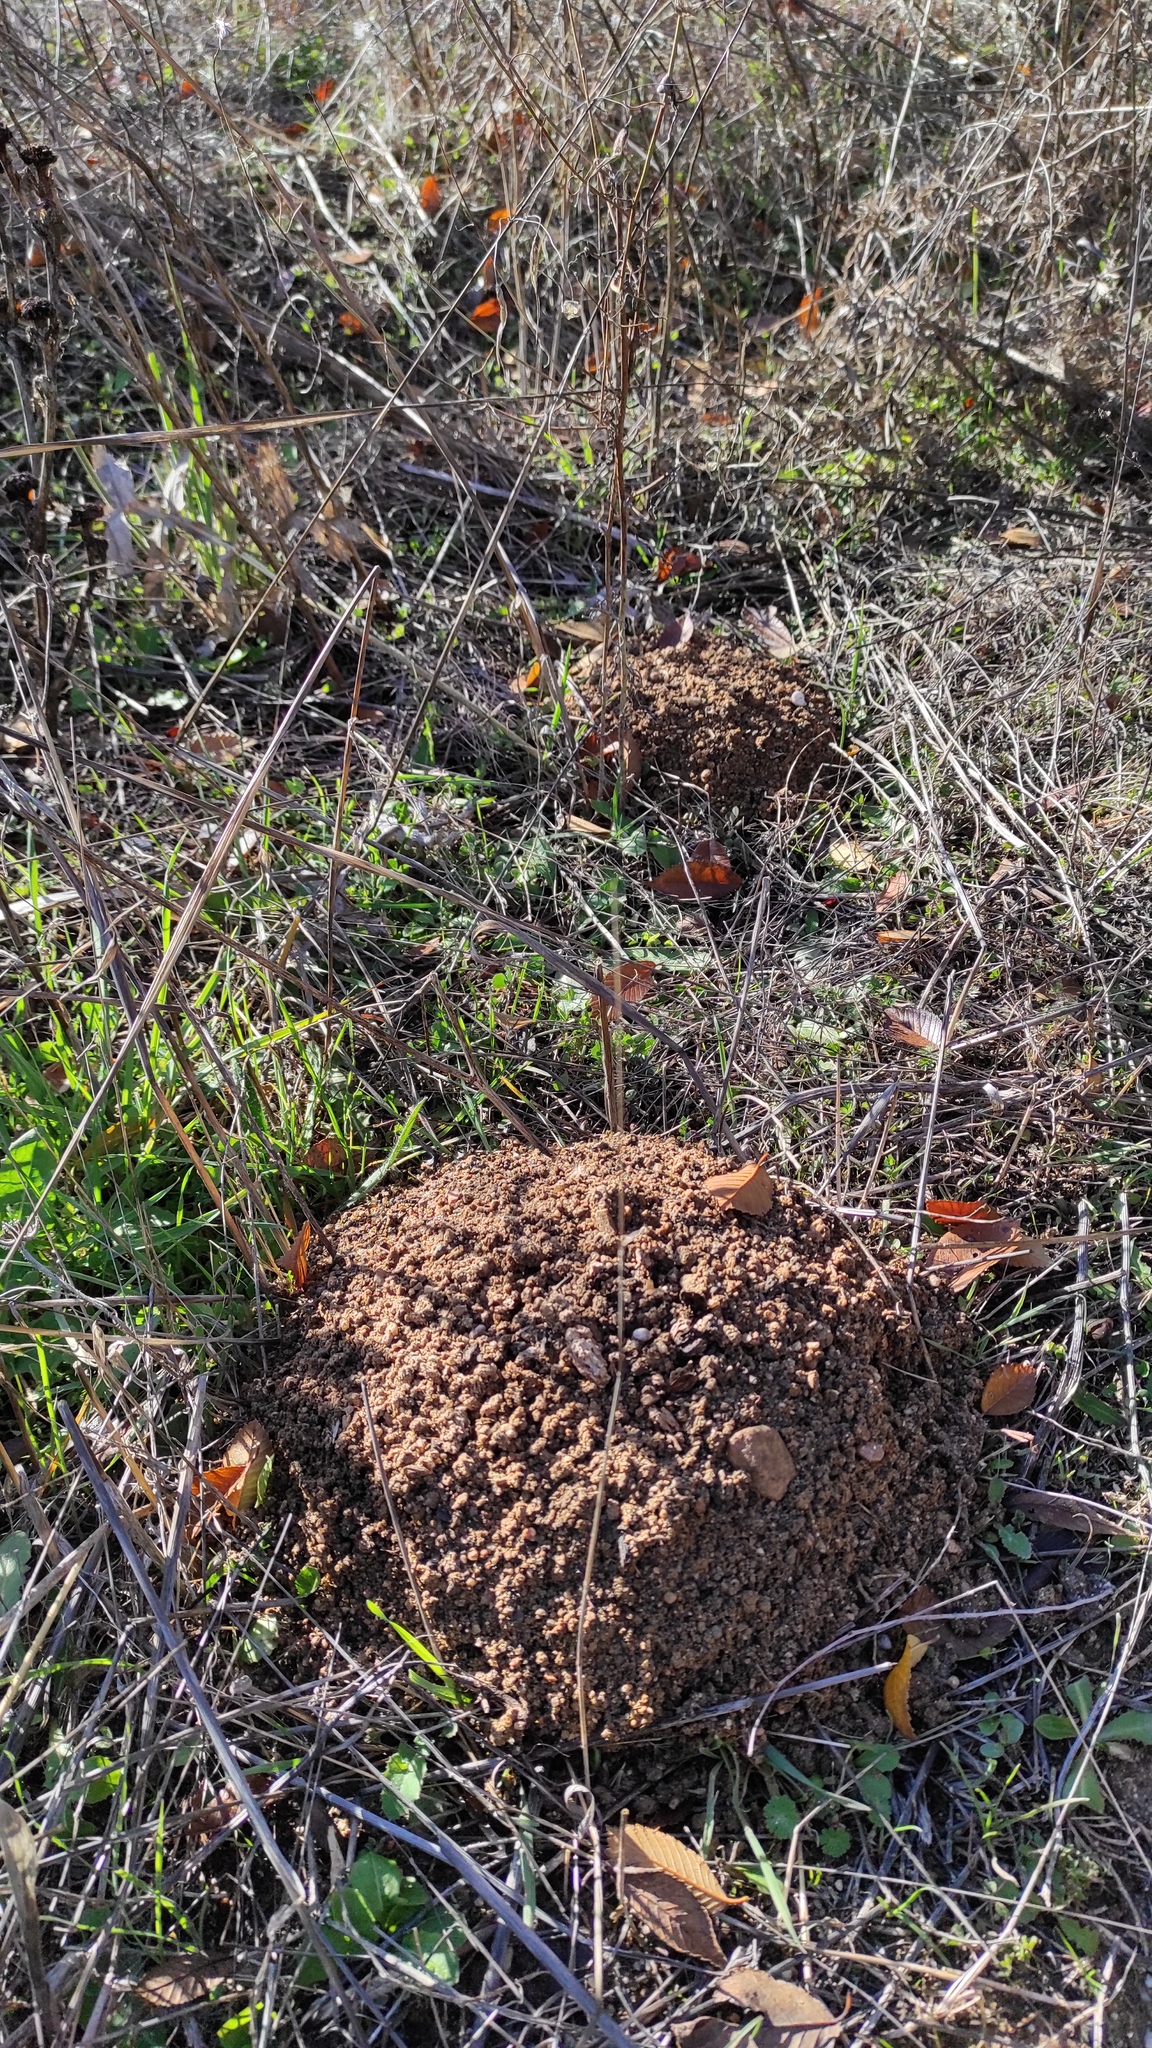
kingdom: Animalia
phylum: Chordata
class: Mammalia
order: Rodentia
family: Cricetidae
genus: Microtus
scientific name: Microtus duodecimcostatus
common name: Mediterranean pine vole
